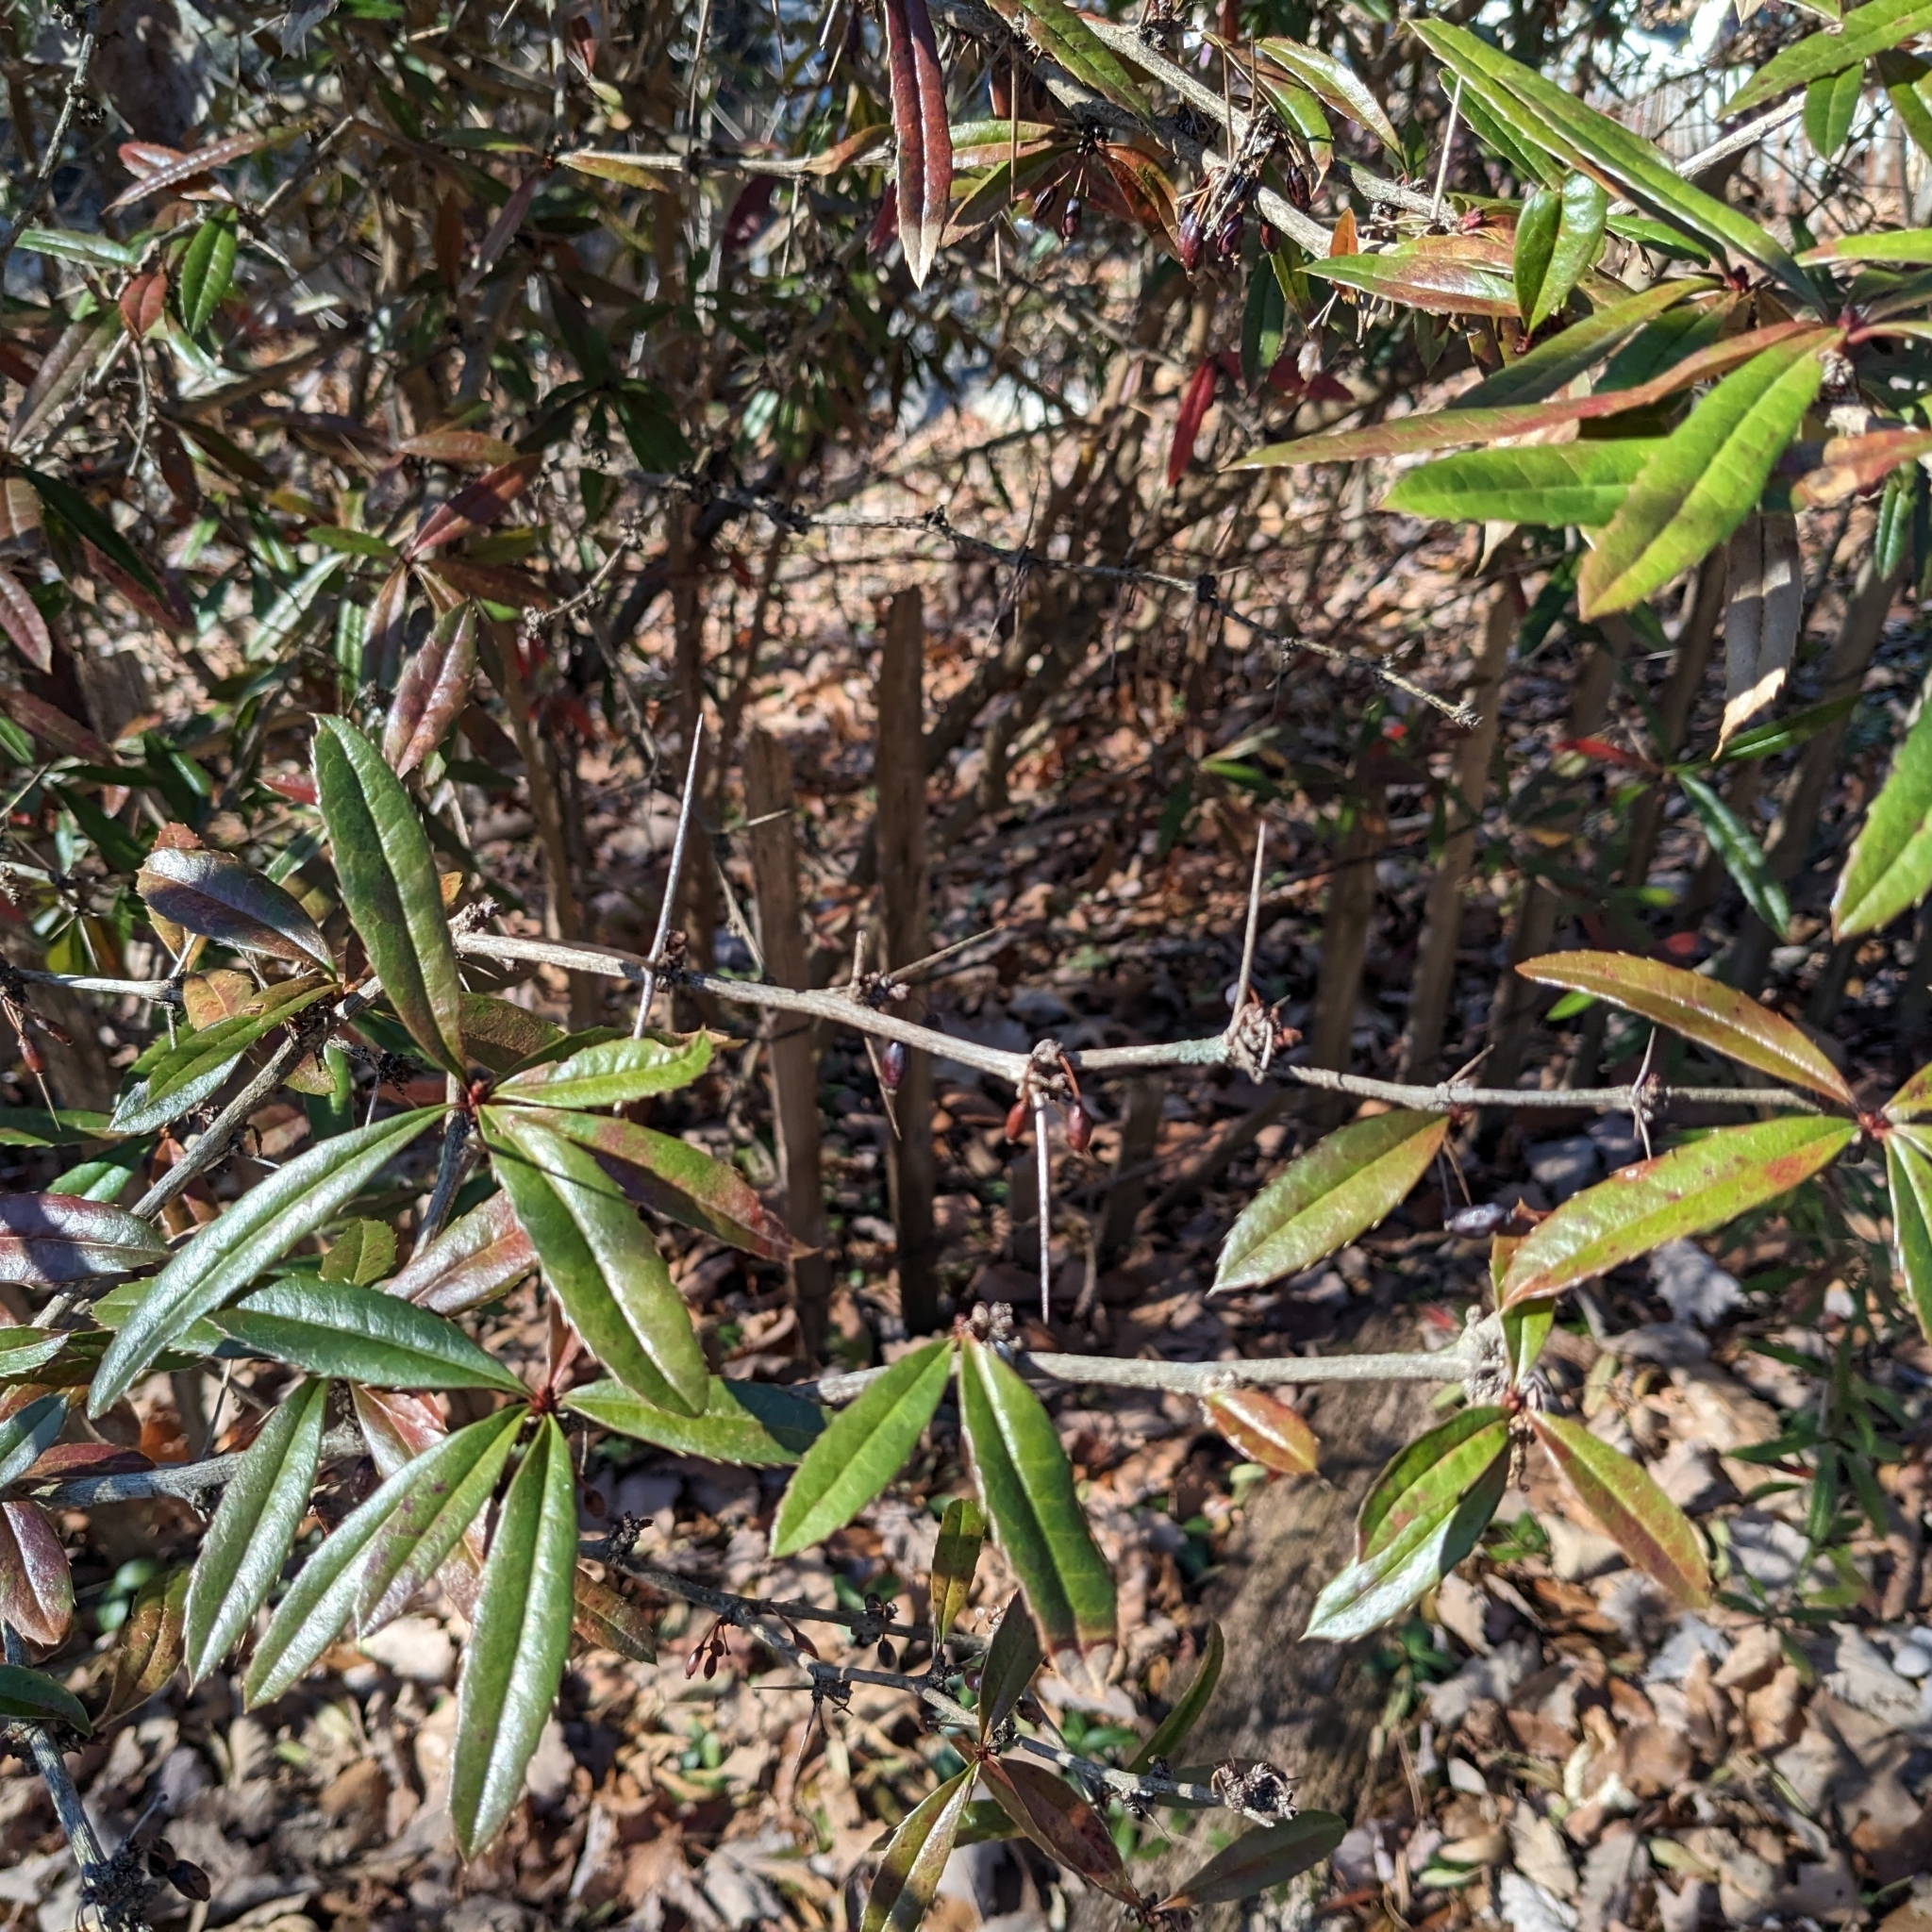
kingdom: Plantae
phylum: Tracheophyta
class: Magnoliopsida
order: Ranunculales
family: Berberidaceae
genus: Berberis
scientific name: Berberis julianae
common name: Wintergreen barberry
